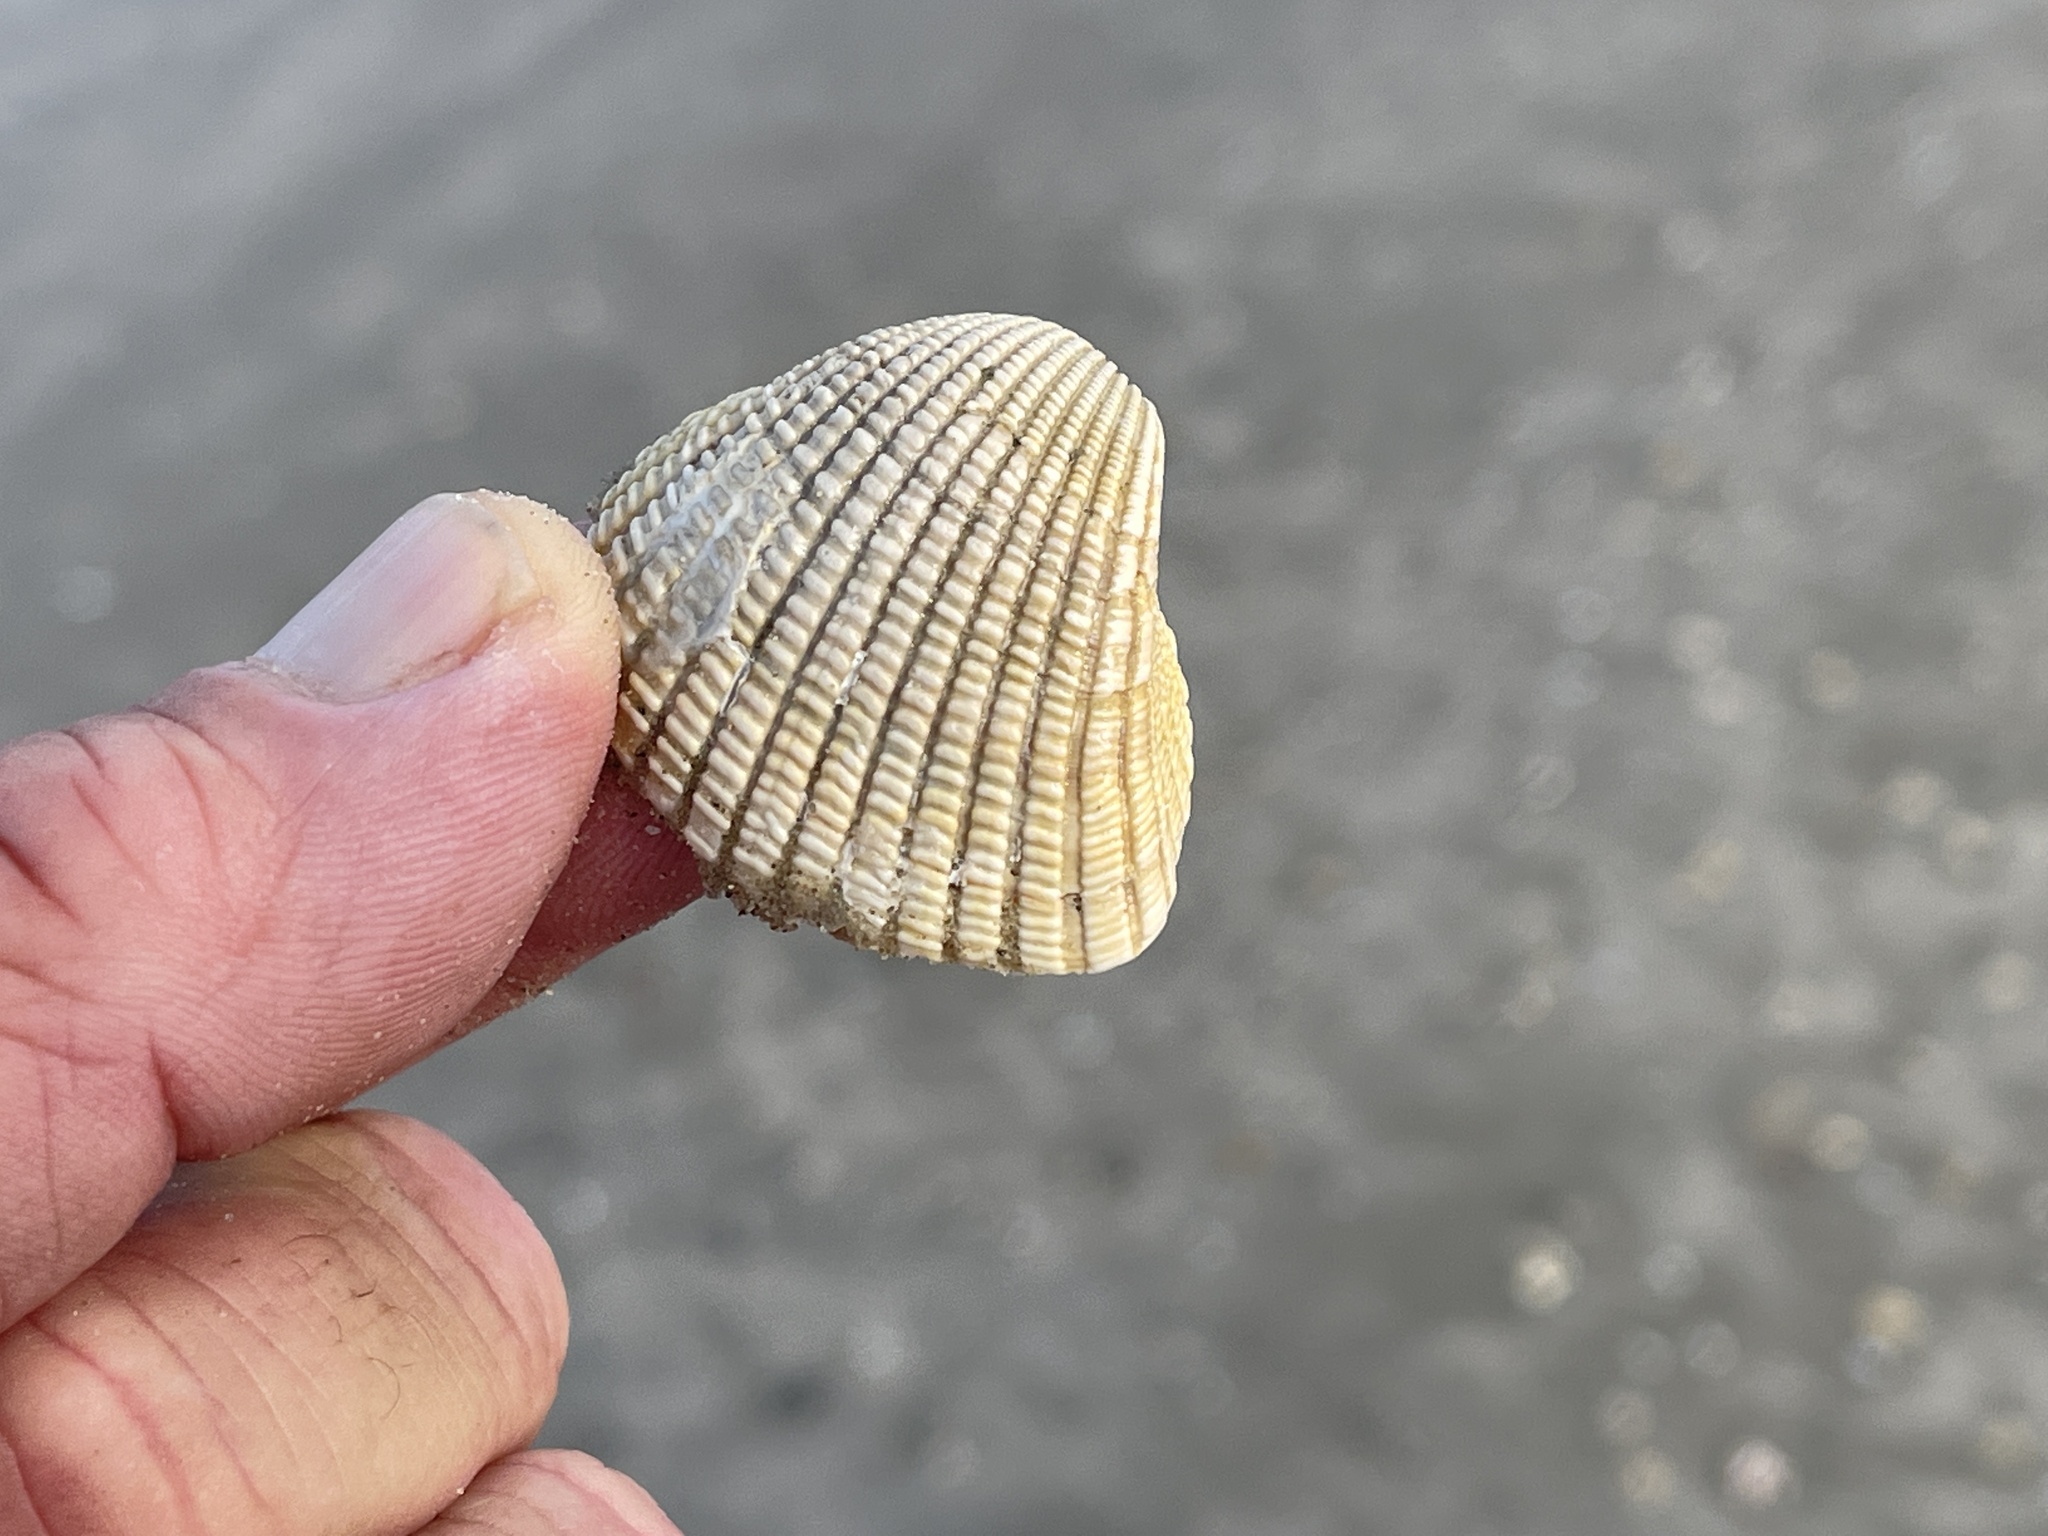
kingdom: Animalia
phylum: Mollusca
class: Bivalvia
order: Arcida
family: Arcidae
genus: Anadara
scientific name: Anadara brasiliana
